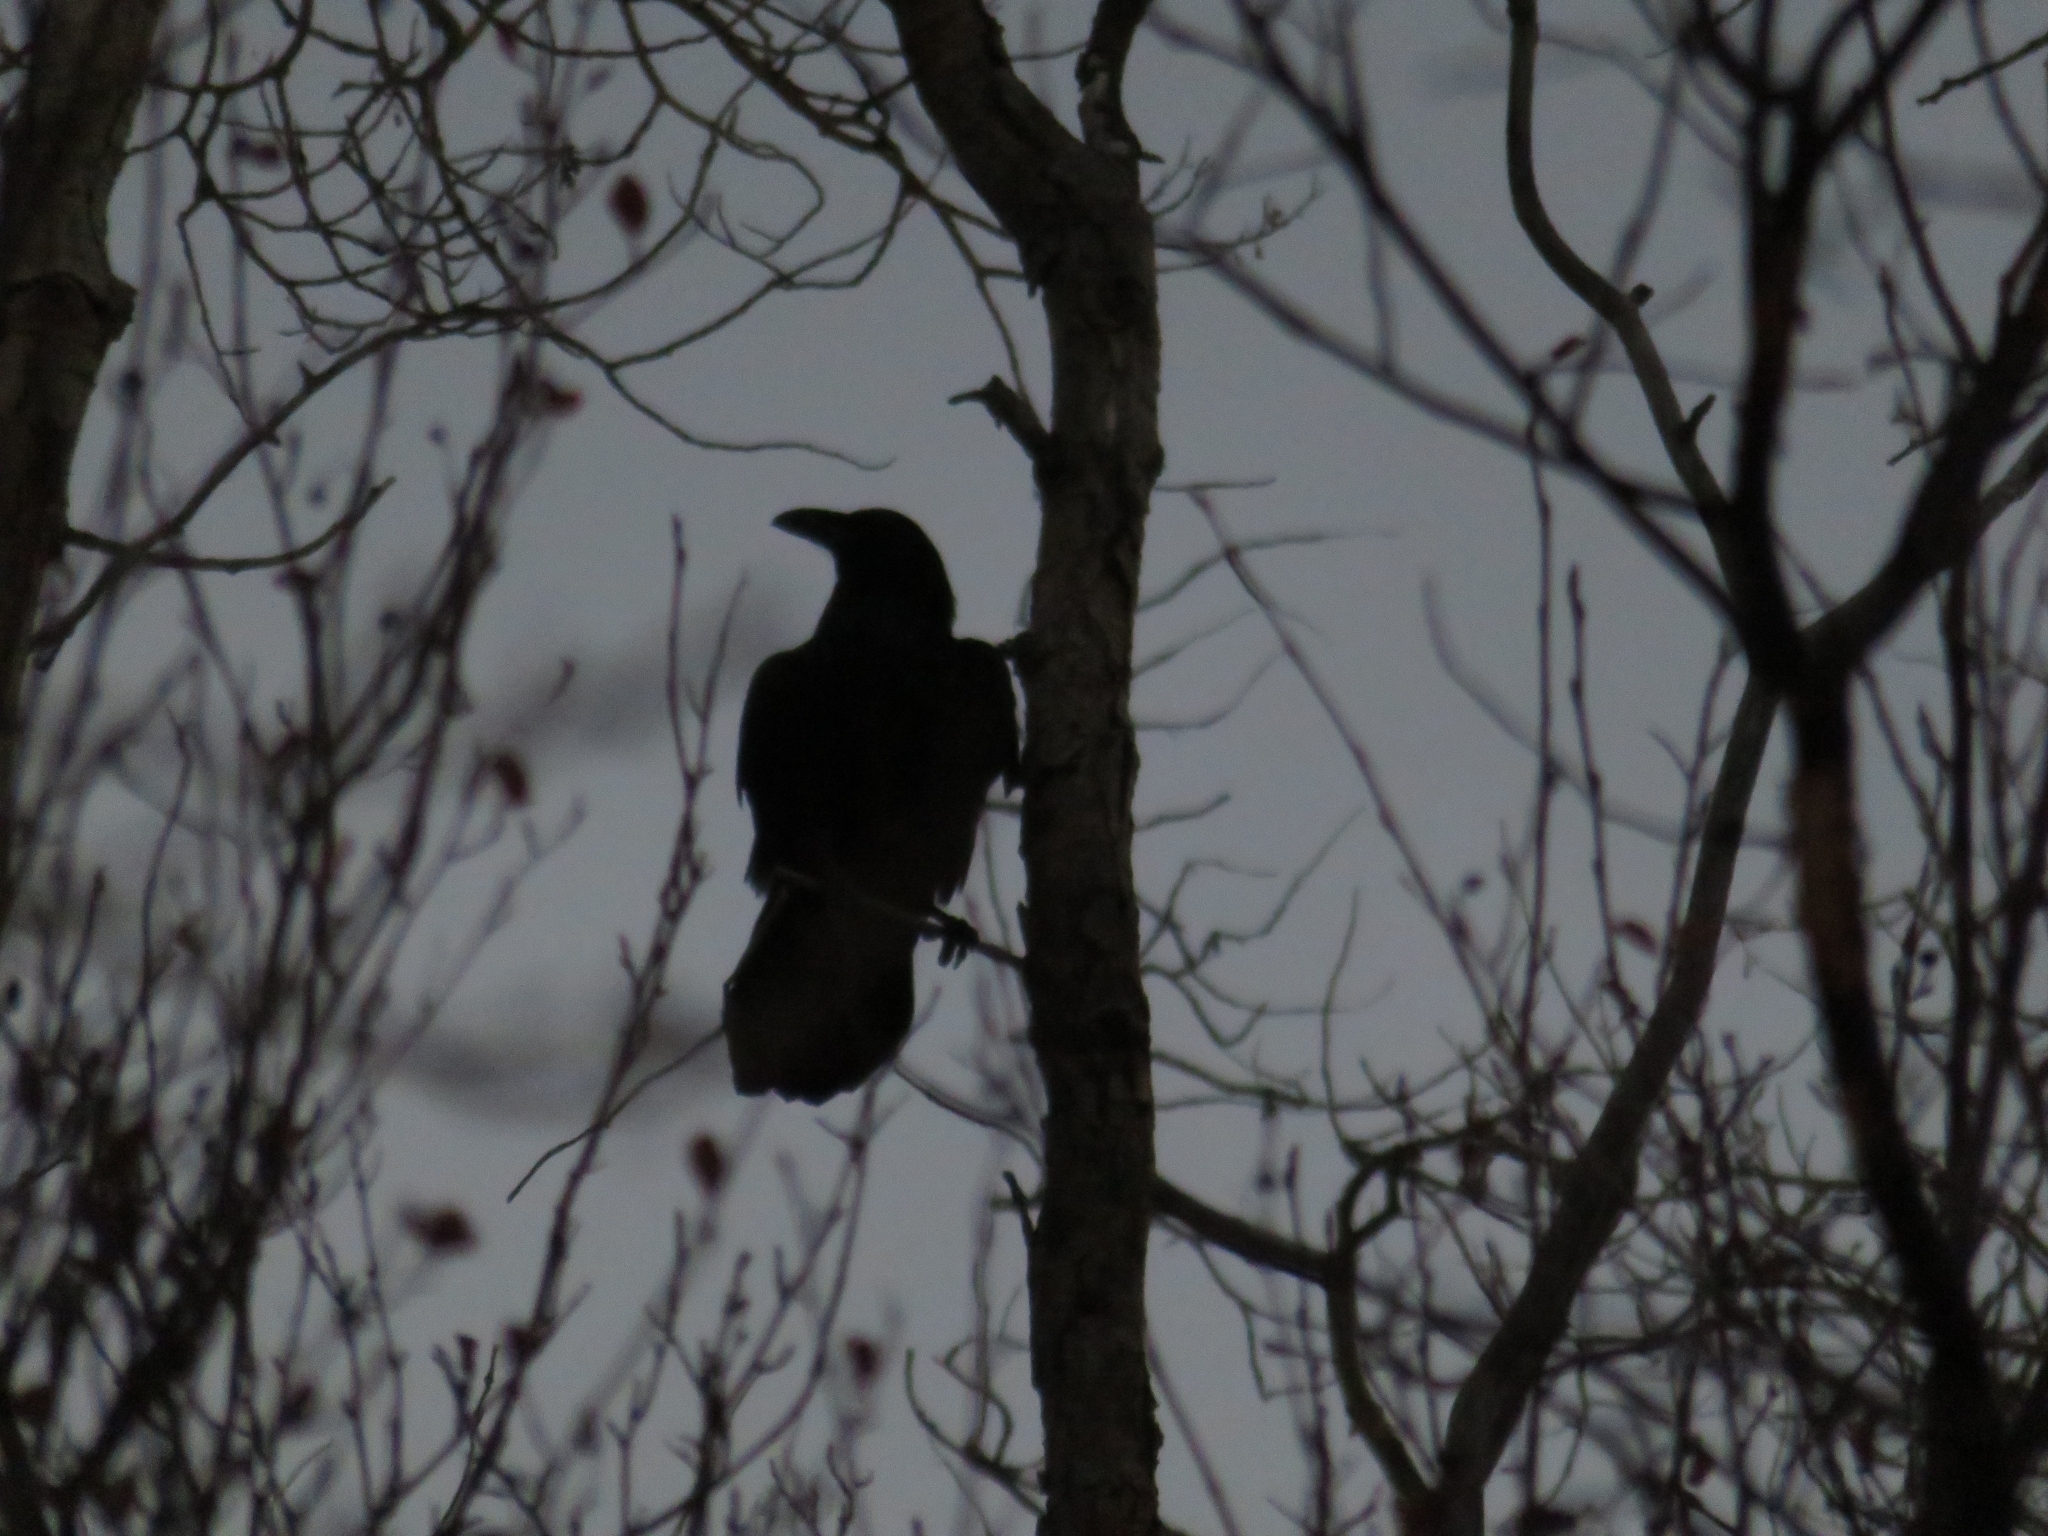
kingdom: Animalia
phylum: Chordata
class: Aves
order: Passeriformes
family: Corvidae
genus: Corvus
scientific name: Corvus corax
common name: Common raven
